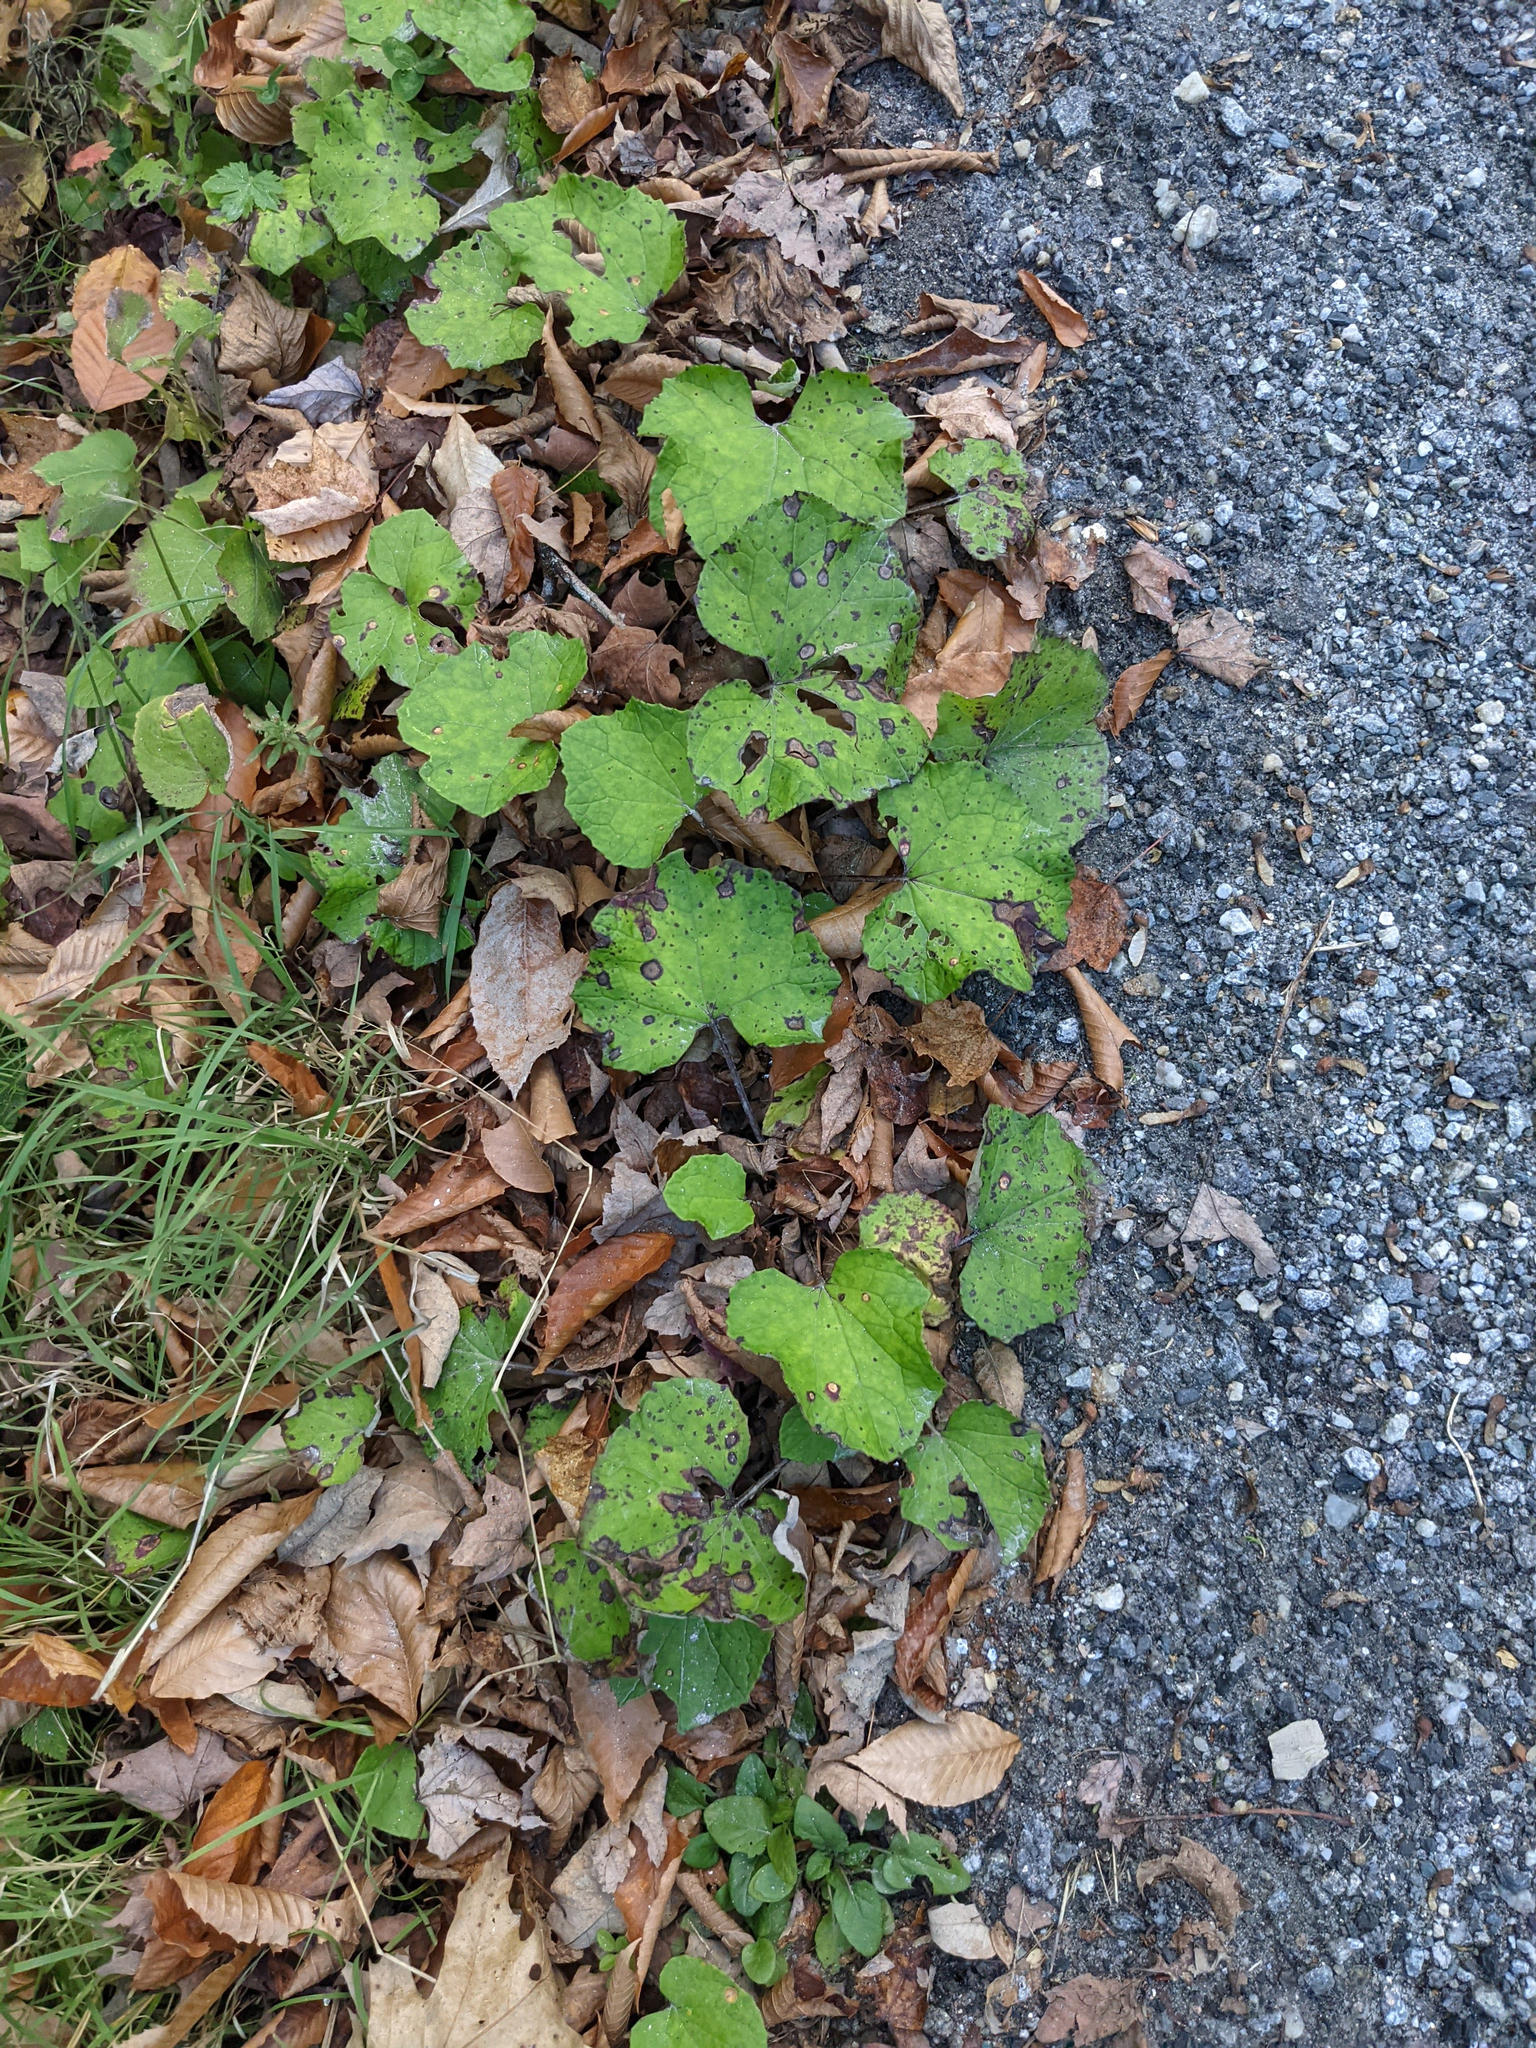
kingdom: Plantae
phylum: Tracheophyta
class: Magnoliopsida
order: Asterales
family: Asteraceae
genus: Tussilago
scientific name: Tussilago farfara
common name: Coltsfoot
